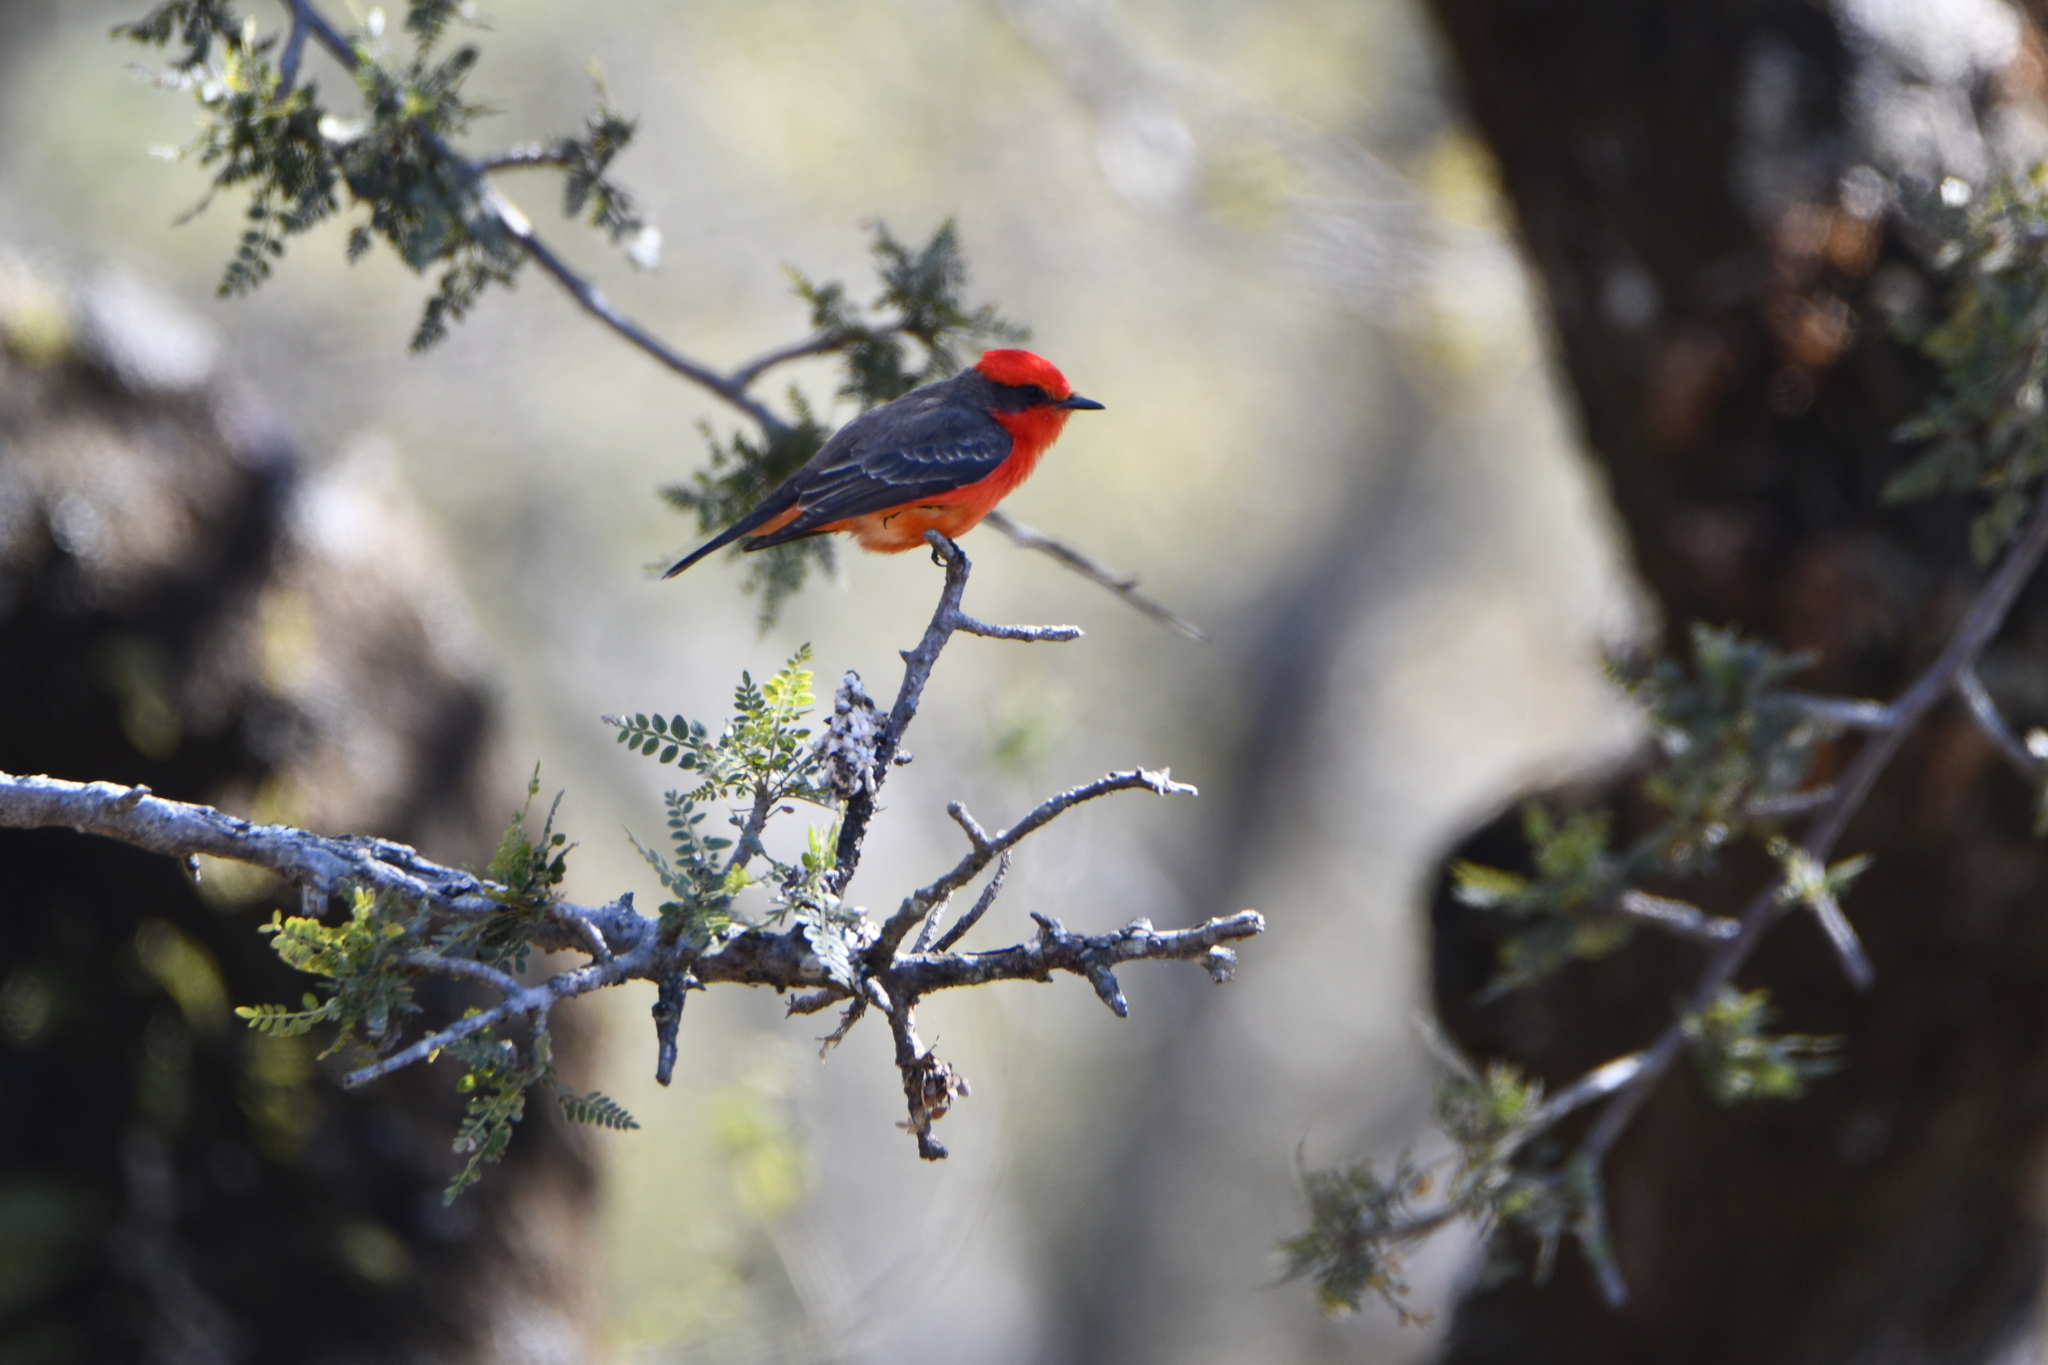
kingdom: Animalia
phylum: Chordata
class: Aves
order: Passeriformes
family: Tyrannidae
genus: Pyrocephalus
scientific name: Pyrocephalus rubinus
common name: Vermilion flycatcher
